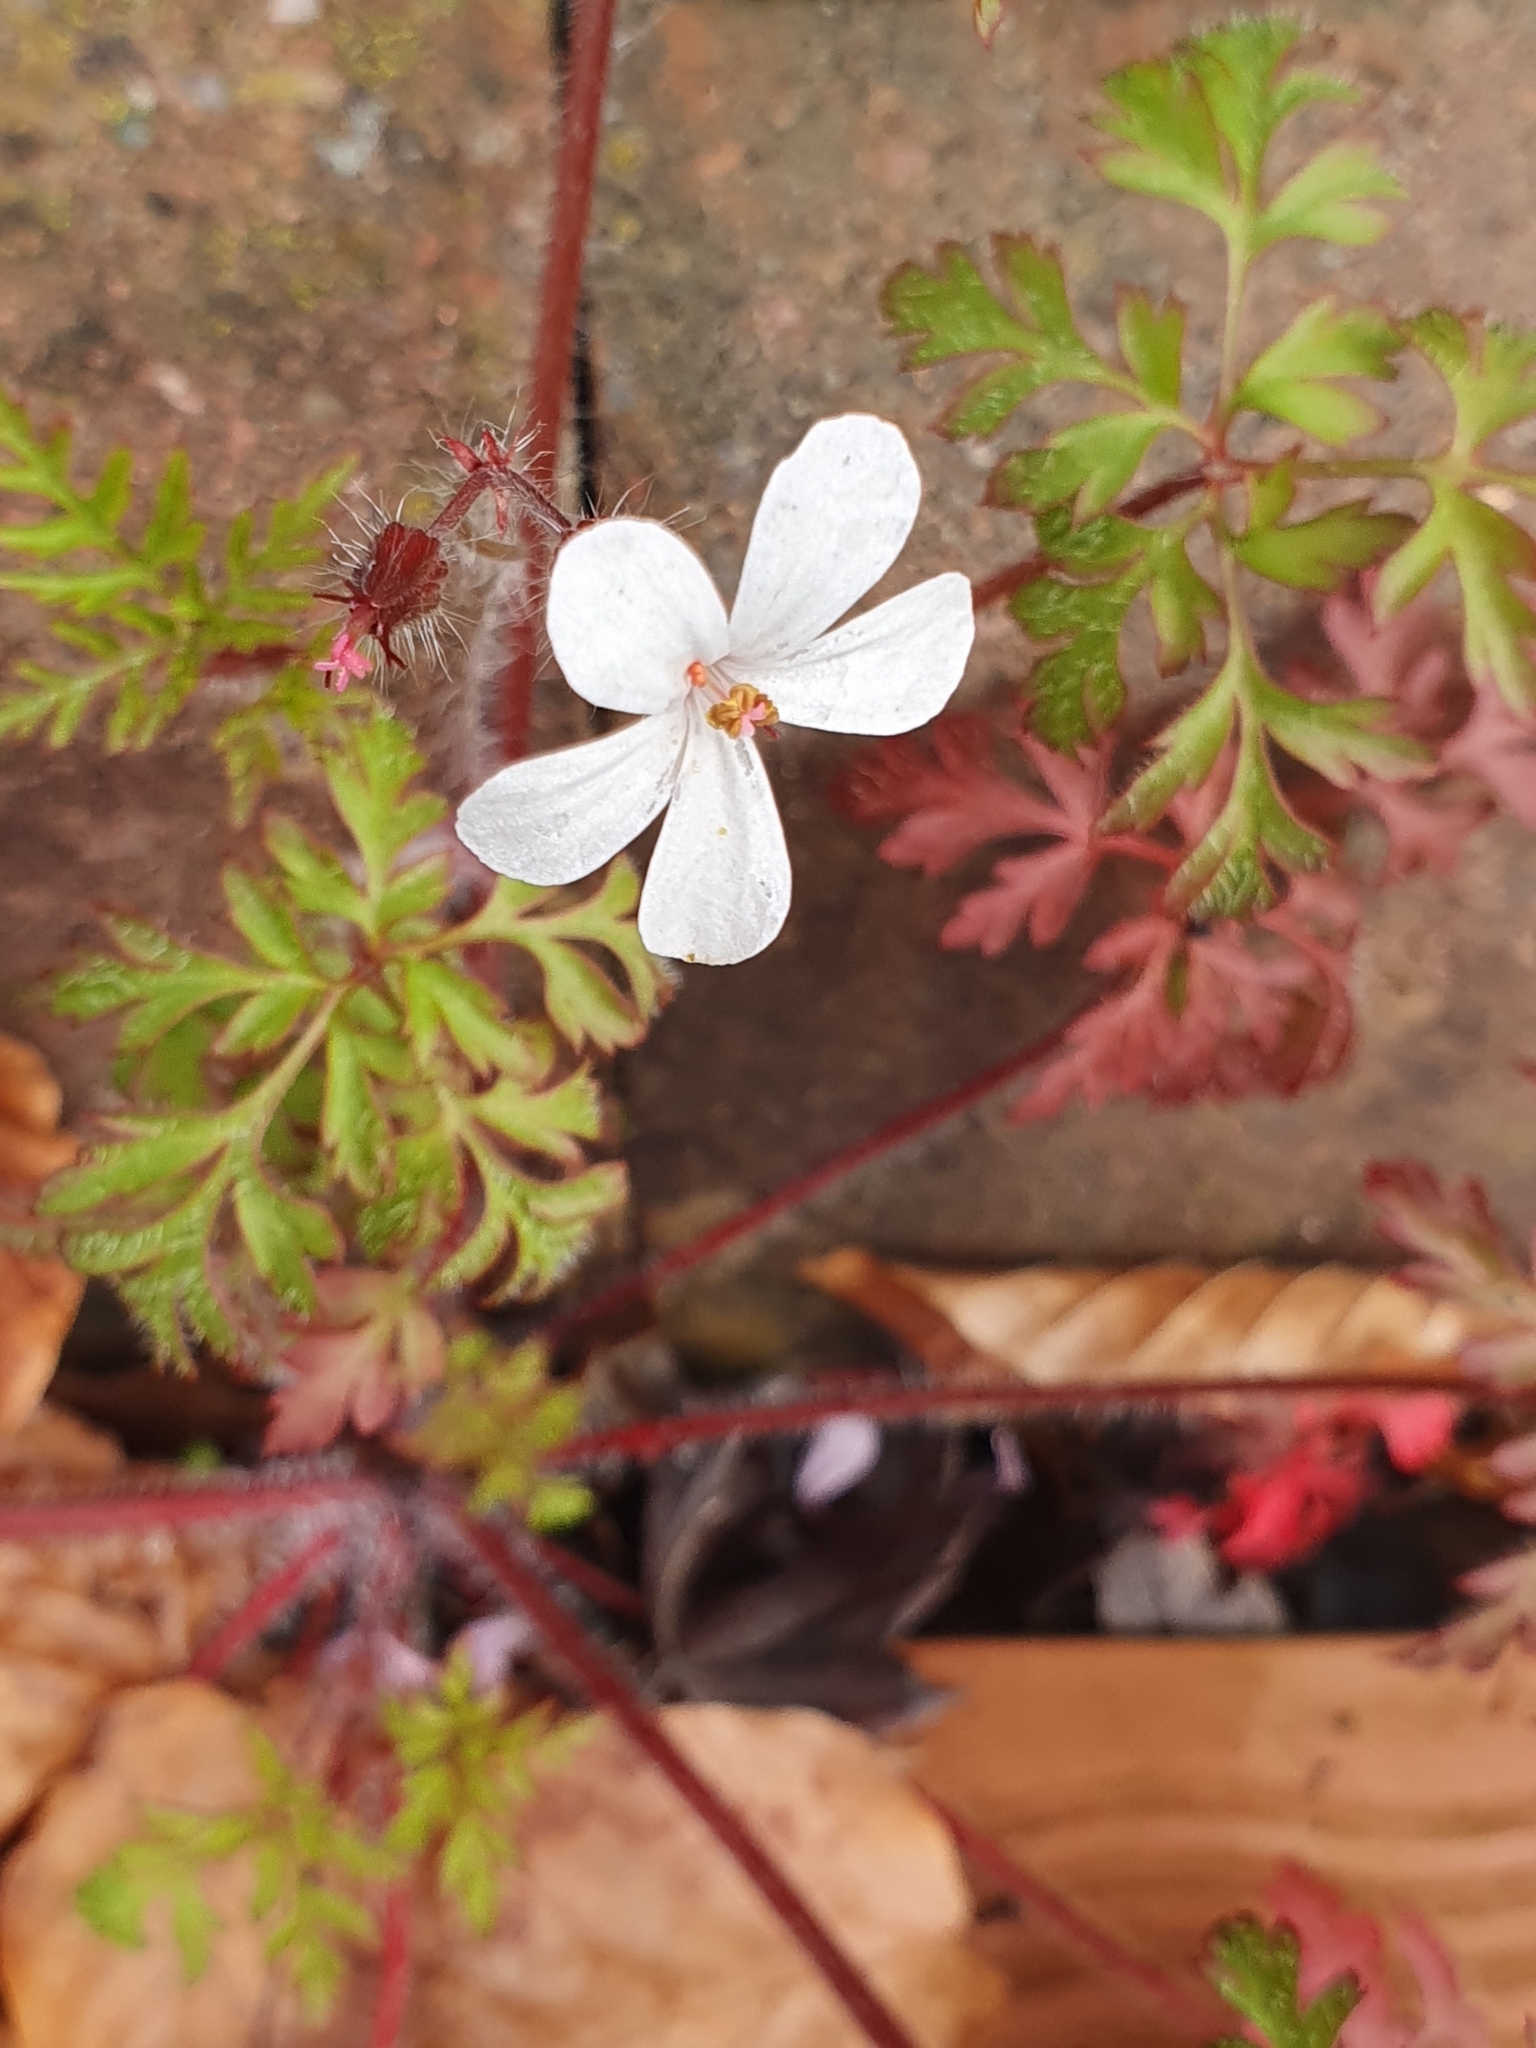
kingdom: Plantae
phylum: Tracheophyta
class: Magnoliopsida
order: Geraniales
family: Geraniaceae
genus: Geranium
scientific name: Geranium robertianum
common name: Herb-robert
